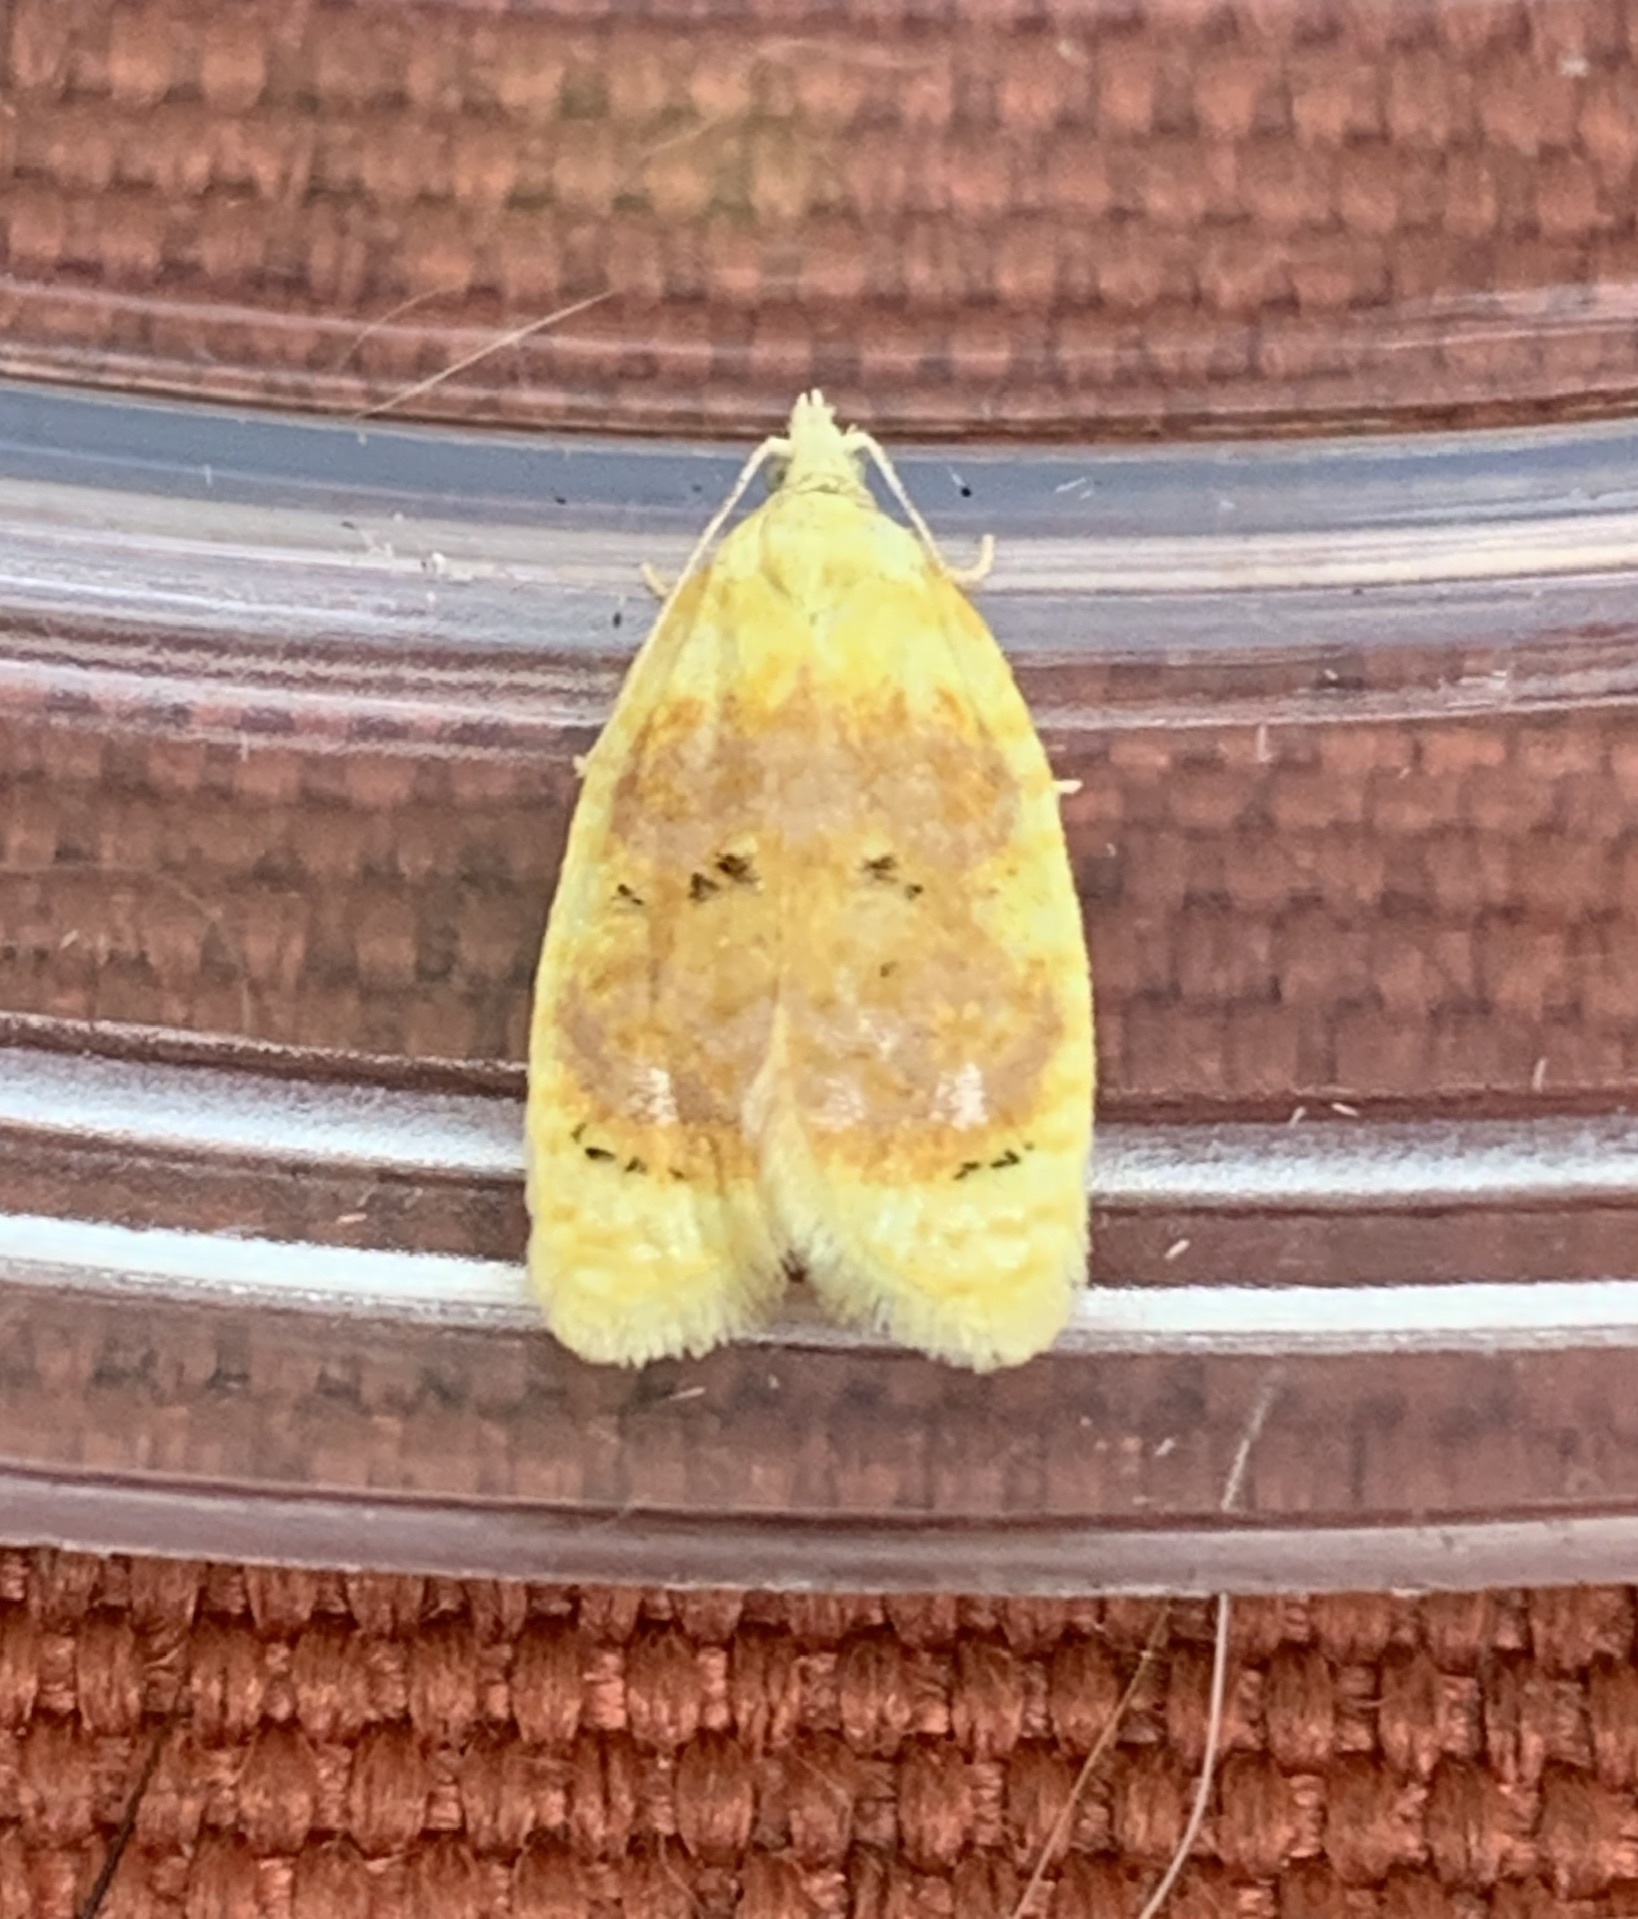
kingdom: Animalia
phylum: Arthropoda
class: Insecta
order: Lepidoptera
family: Tortricidae
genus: Acleris
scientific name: Acleris semipurpurana
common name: Oak leaftier moth
